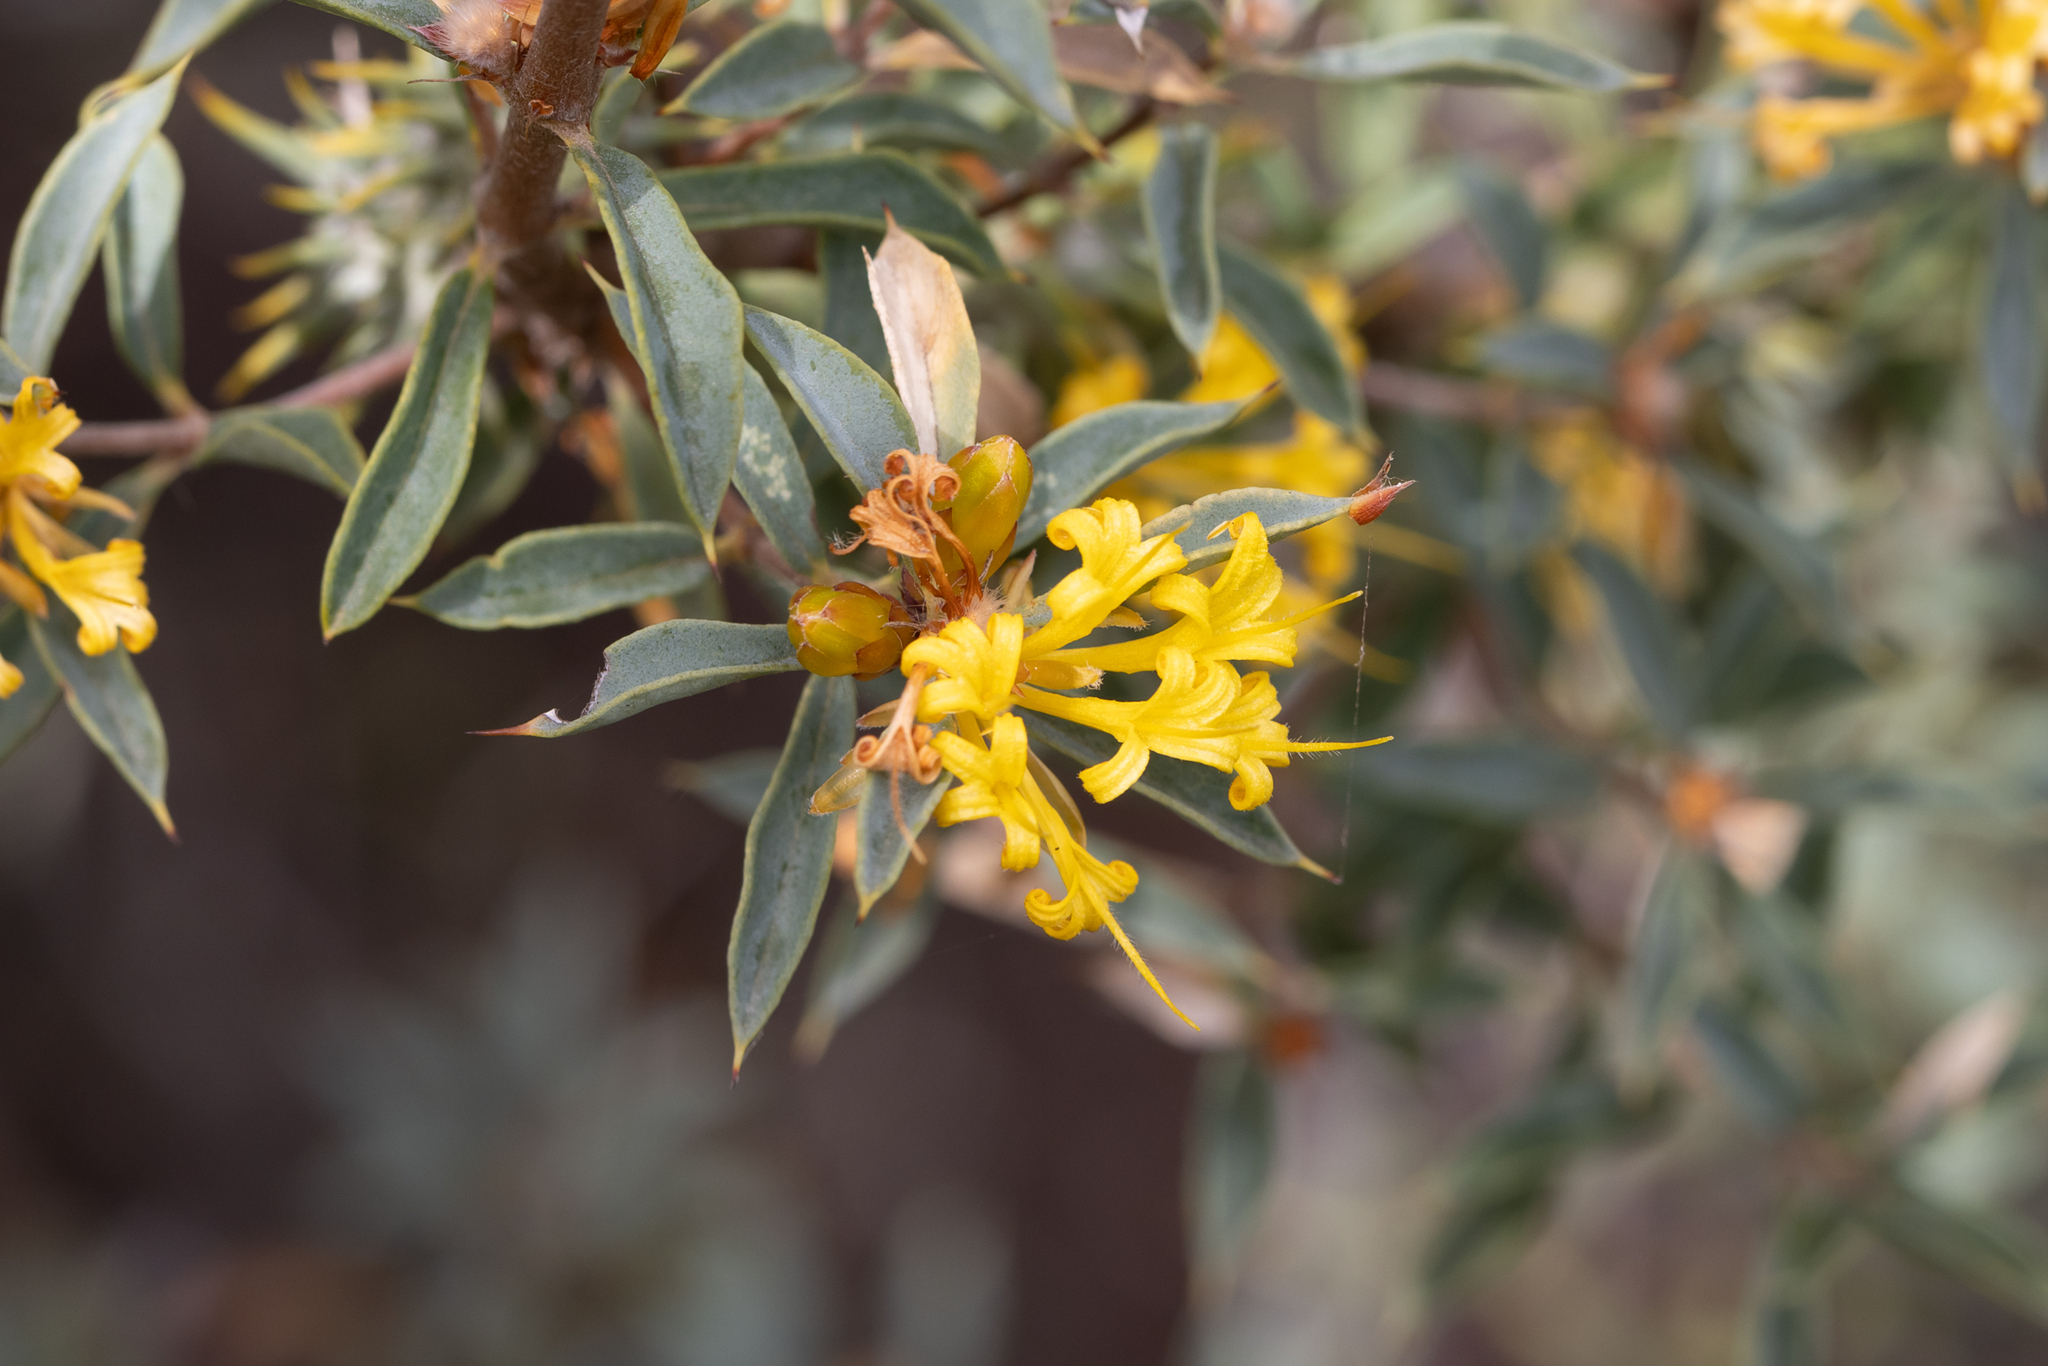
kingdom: Plantae
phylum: Tracheophyta
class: Magnoliopsida
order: Proteales
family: Proteaceae
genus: Lambertia
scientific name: Lambertia ilicifolia
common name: Holly-leaved lambertia
